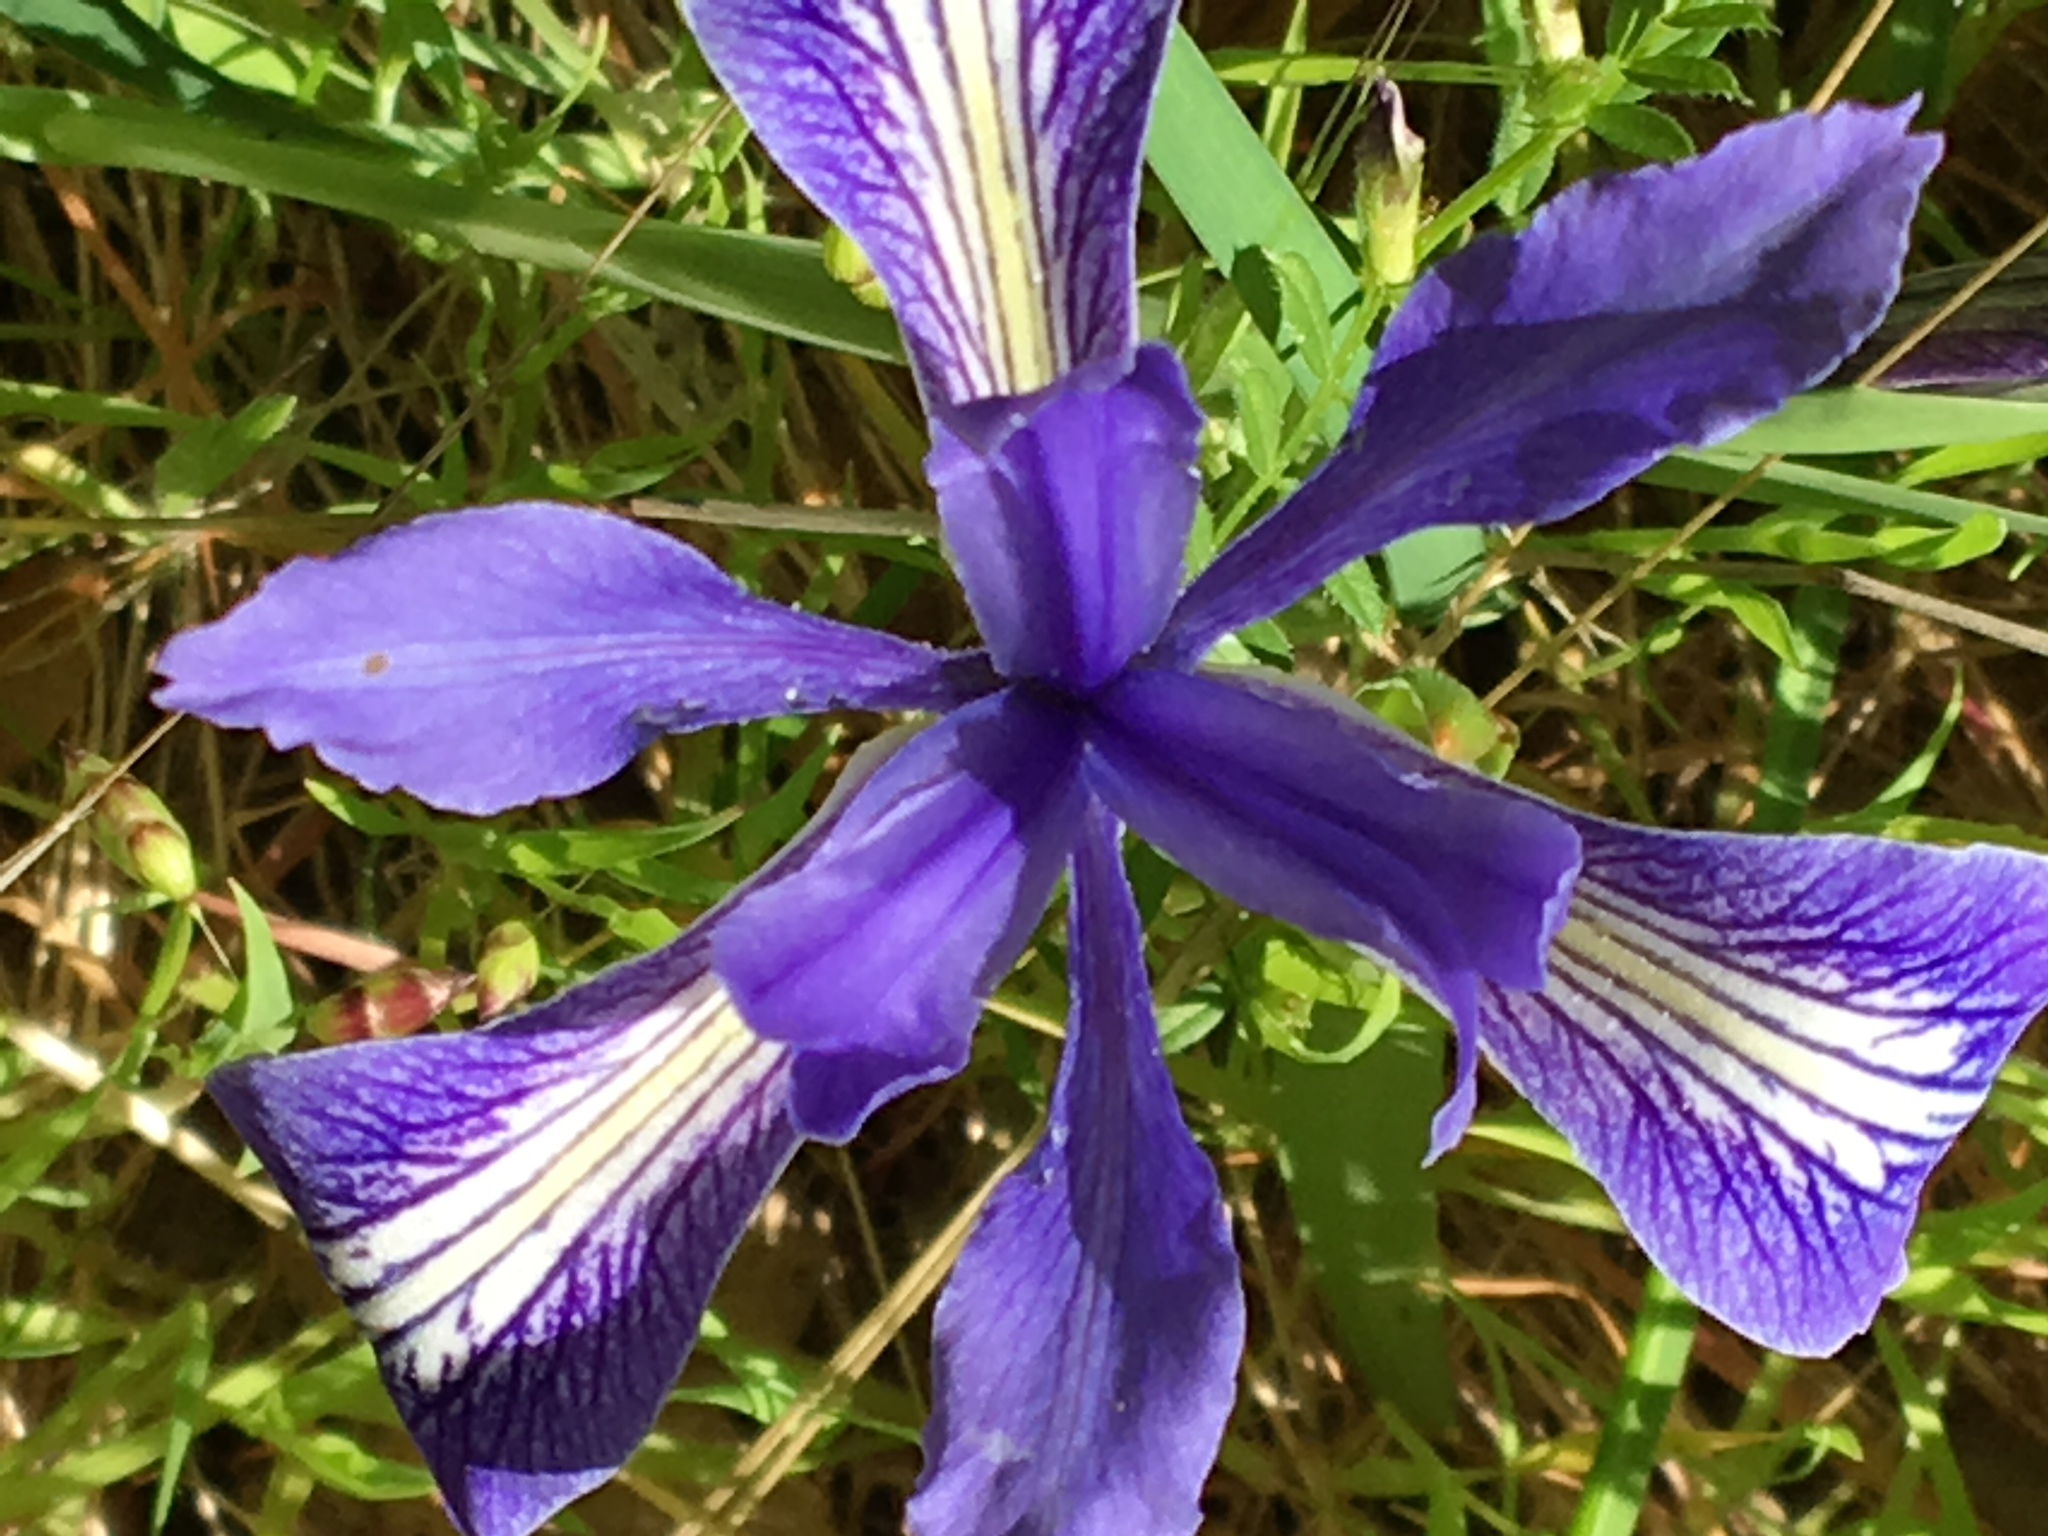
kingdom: Plantae
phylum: Tracheophyta
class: Liliopsida
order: Asparagales
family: Iridaceae
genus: Iris
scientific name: Iris macrosiphon
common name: Ground iris
